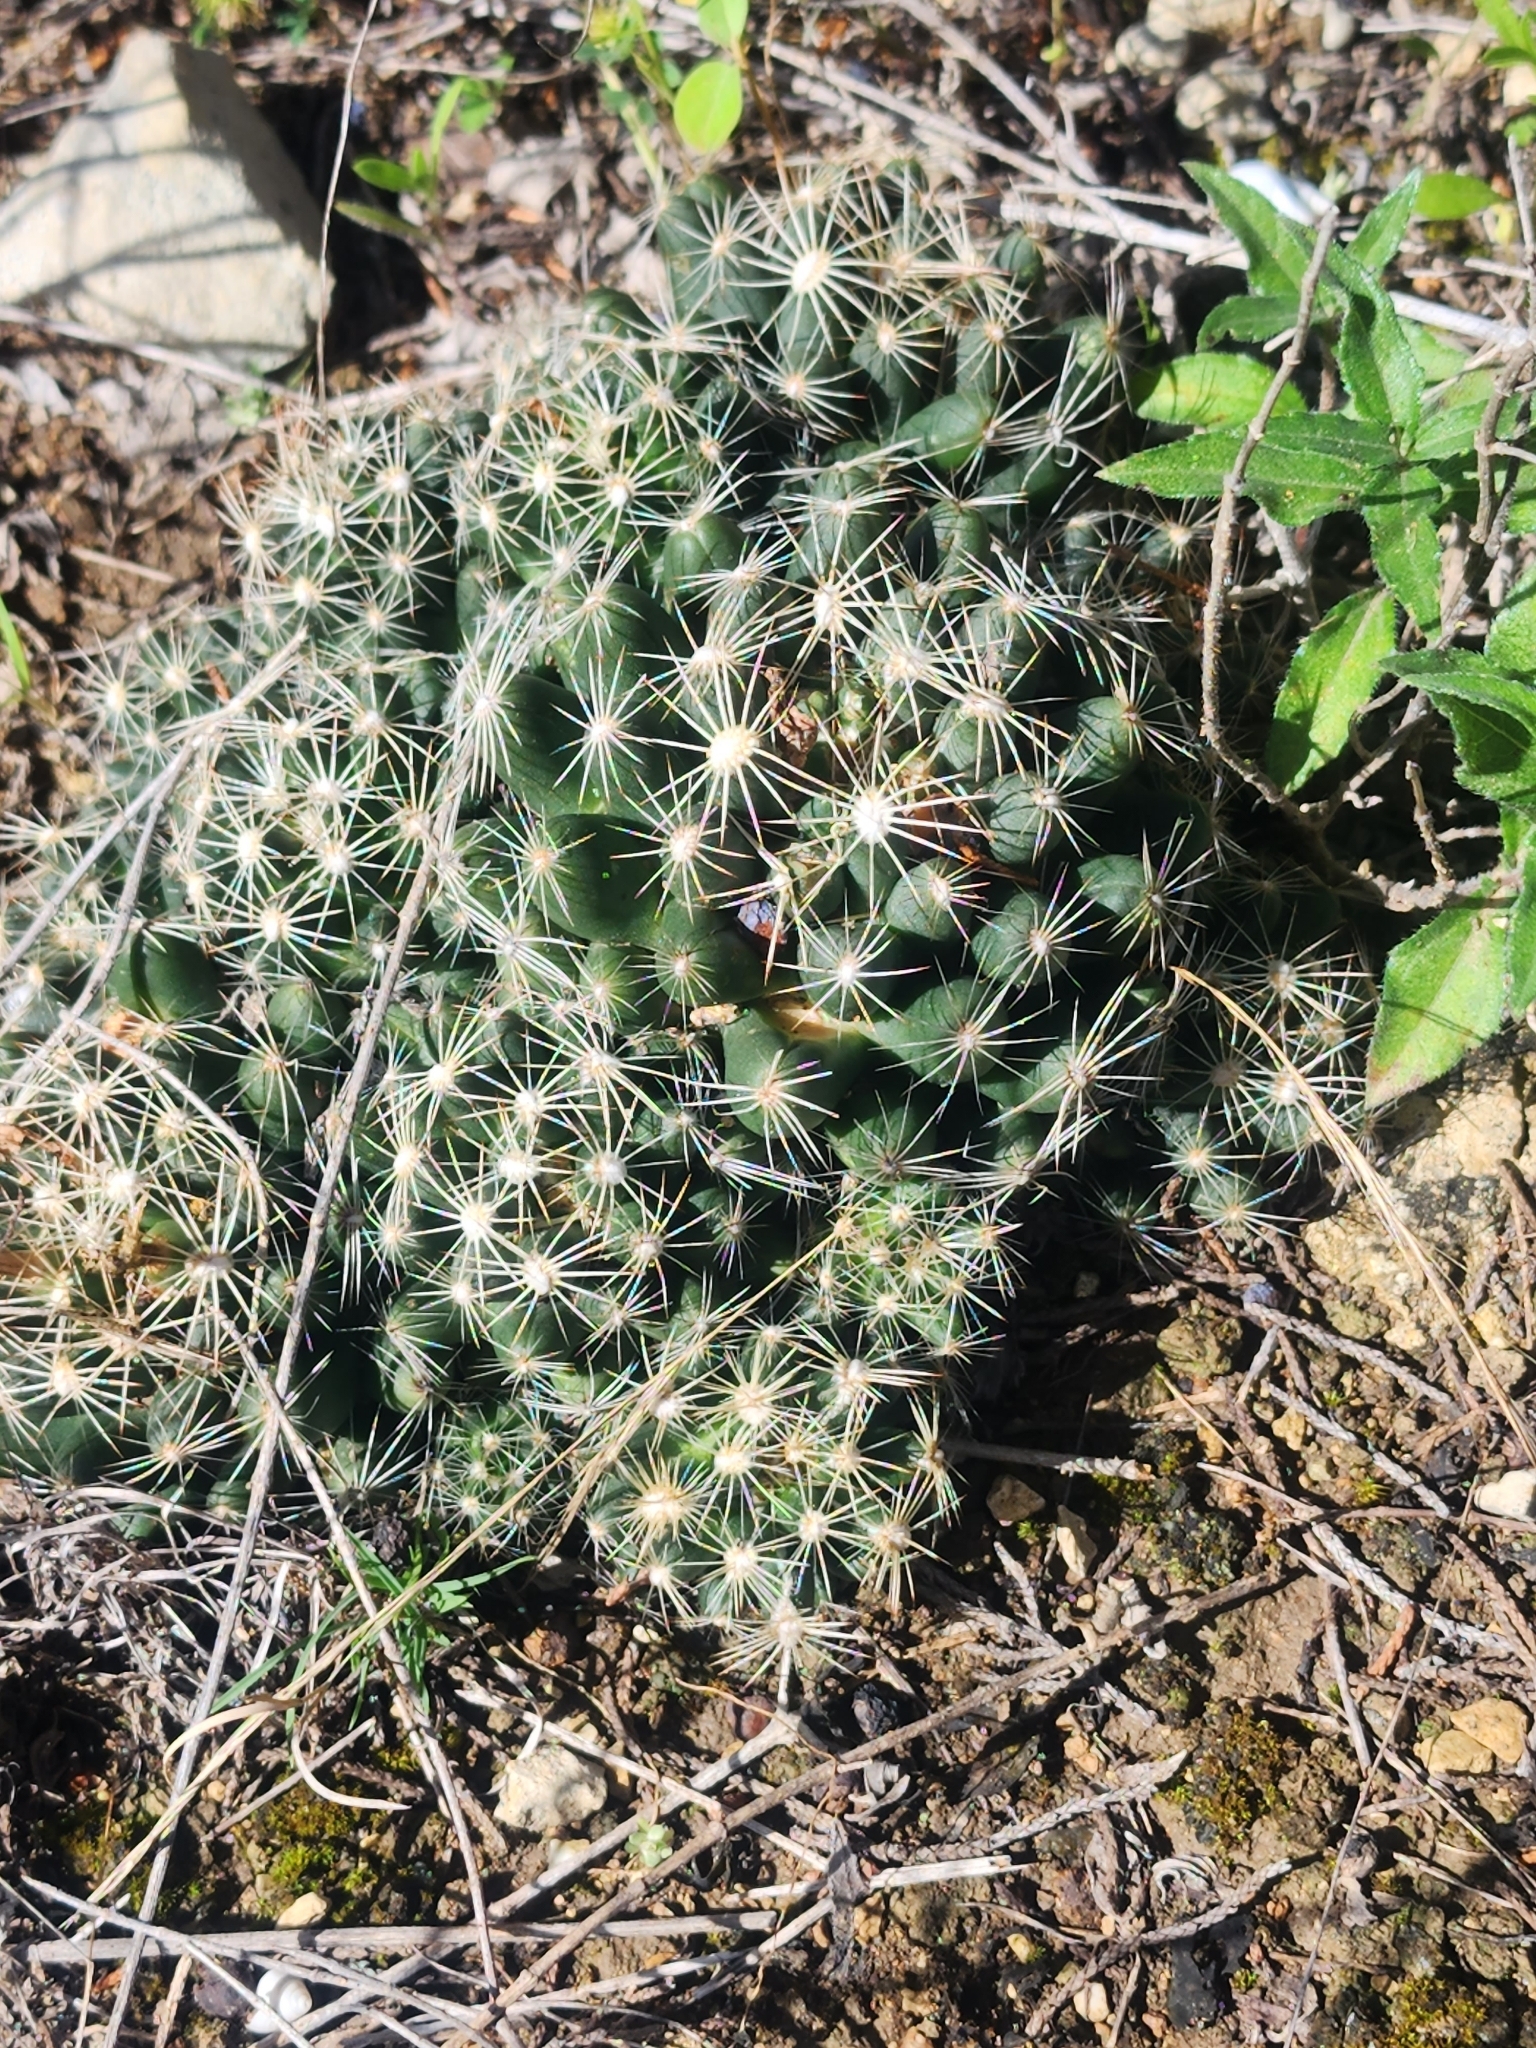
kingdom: Plantae
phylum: Tracheophyta
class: Magnoliopsida
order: Caryophyllales
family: Cactaceae
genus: Pelecyphora
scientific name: Pelecyphora missouriensis
